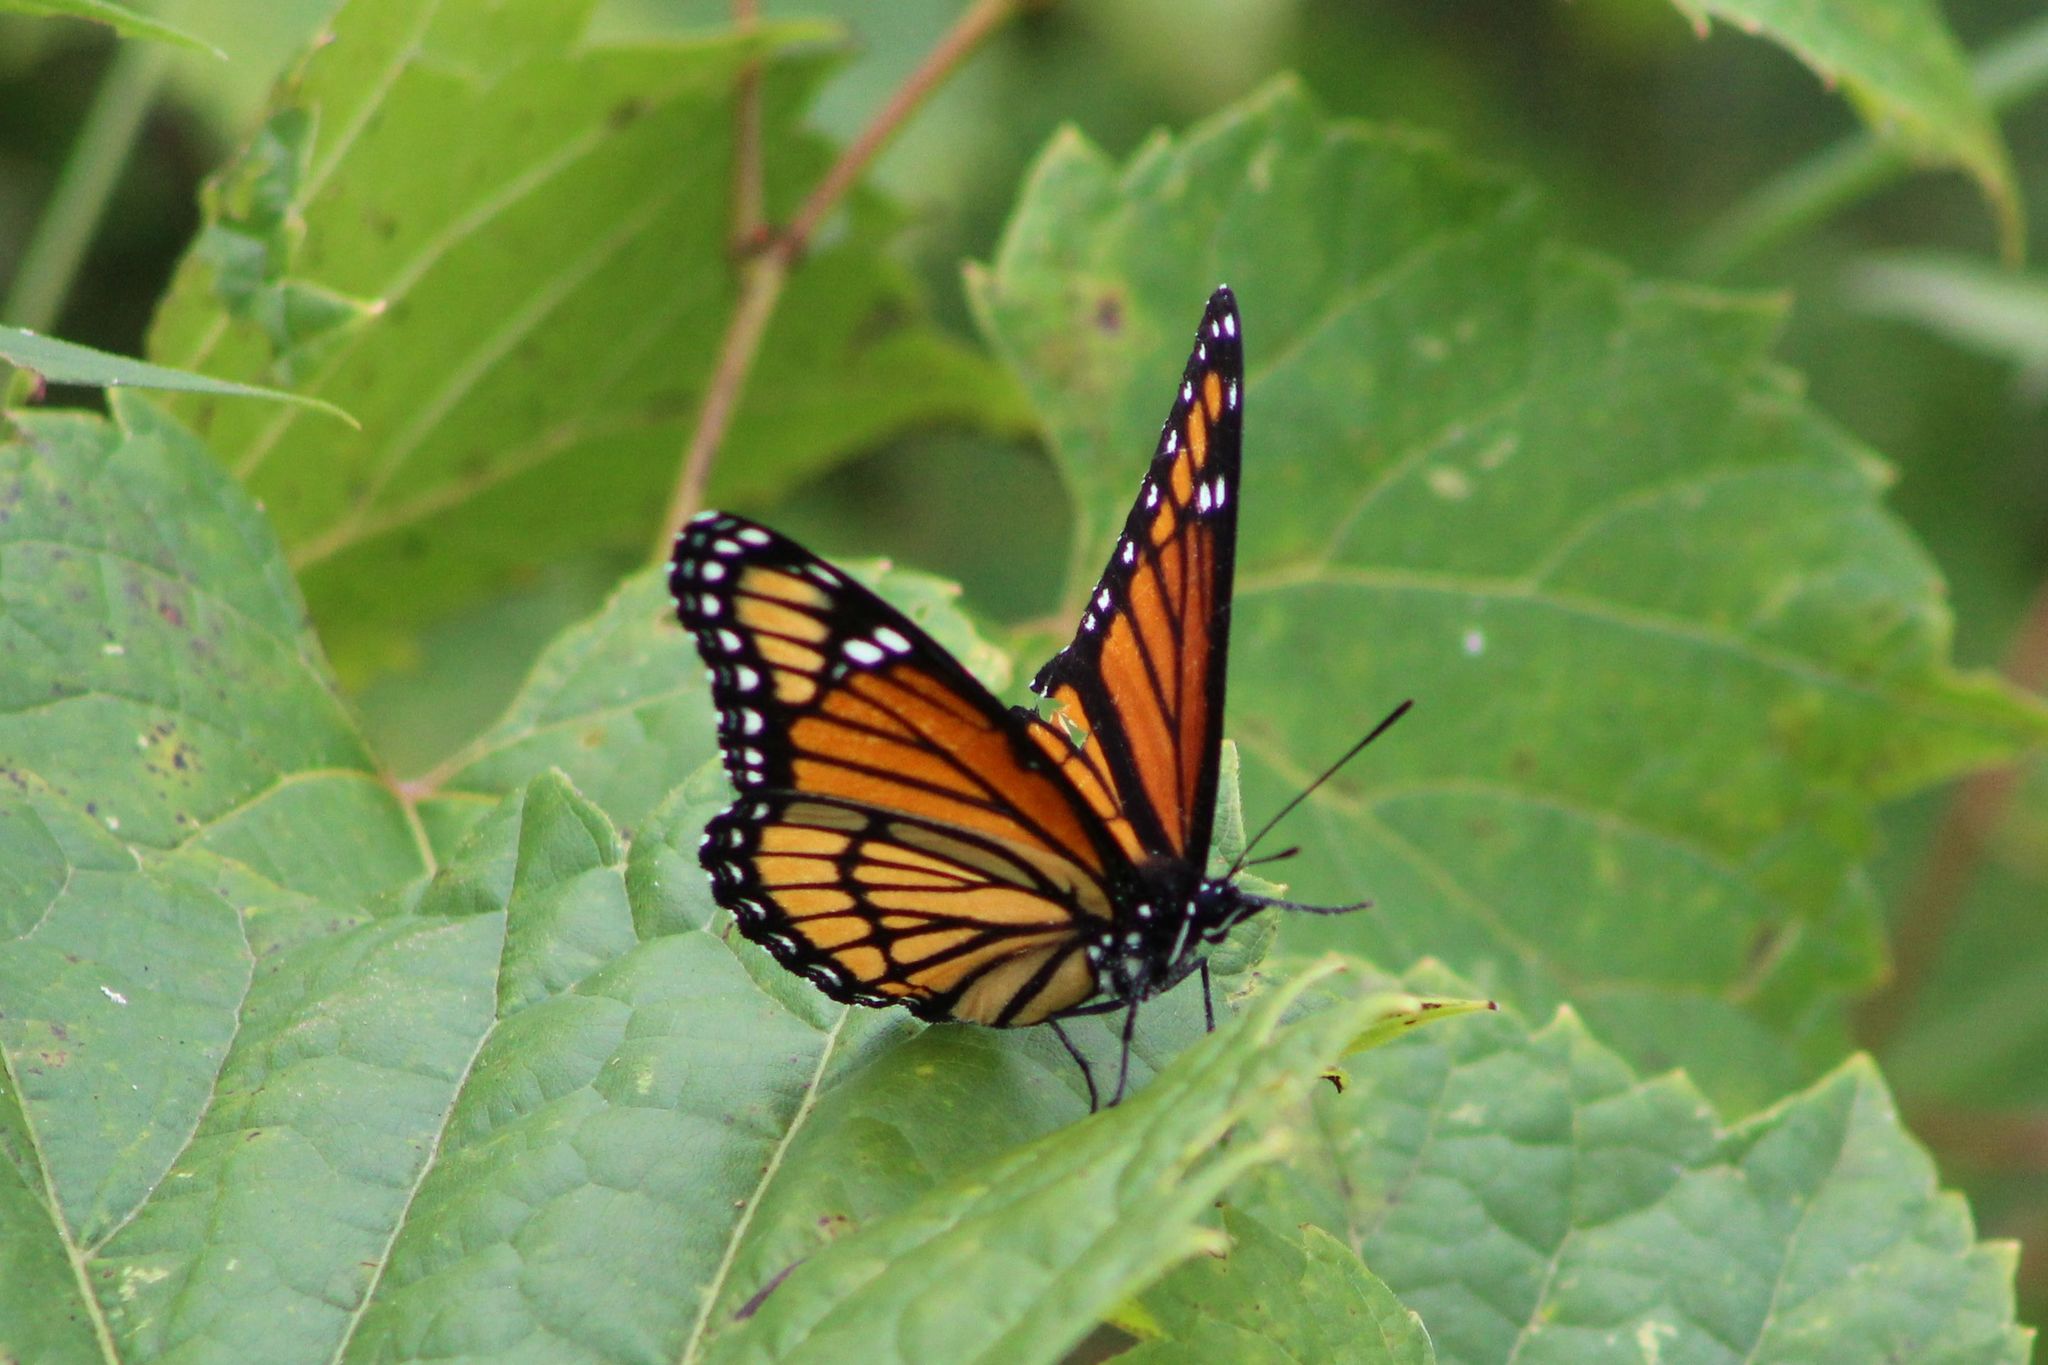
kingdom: Animalia
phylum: Arthropoda
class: Insecta
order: Lepidoptera
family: Nymphalidae
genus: Limenitis
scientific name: Limenitis archippus
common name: Viceroy
